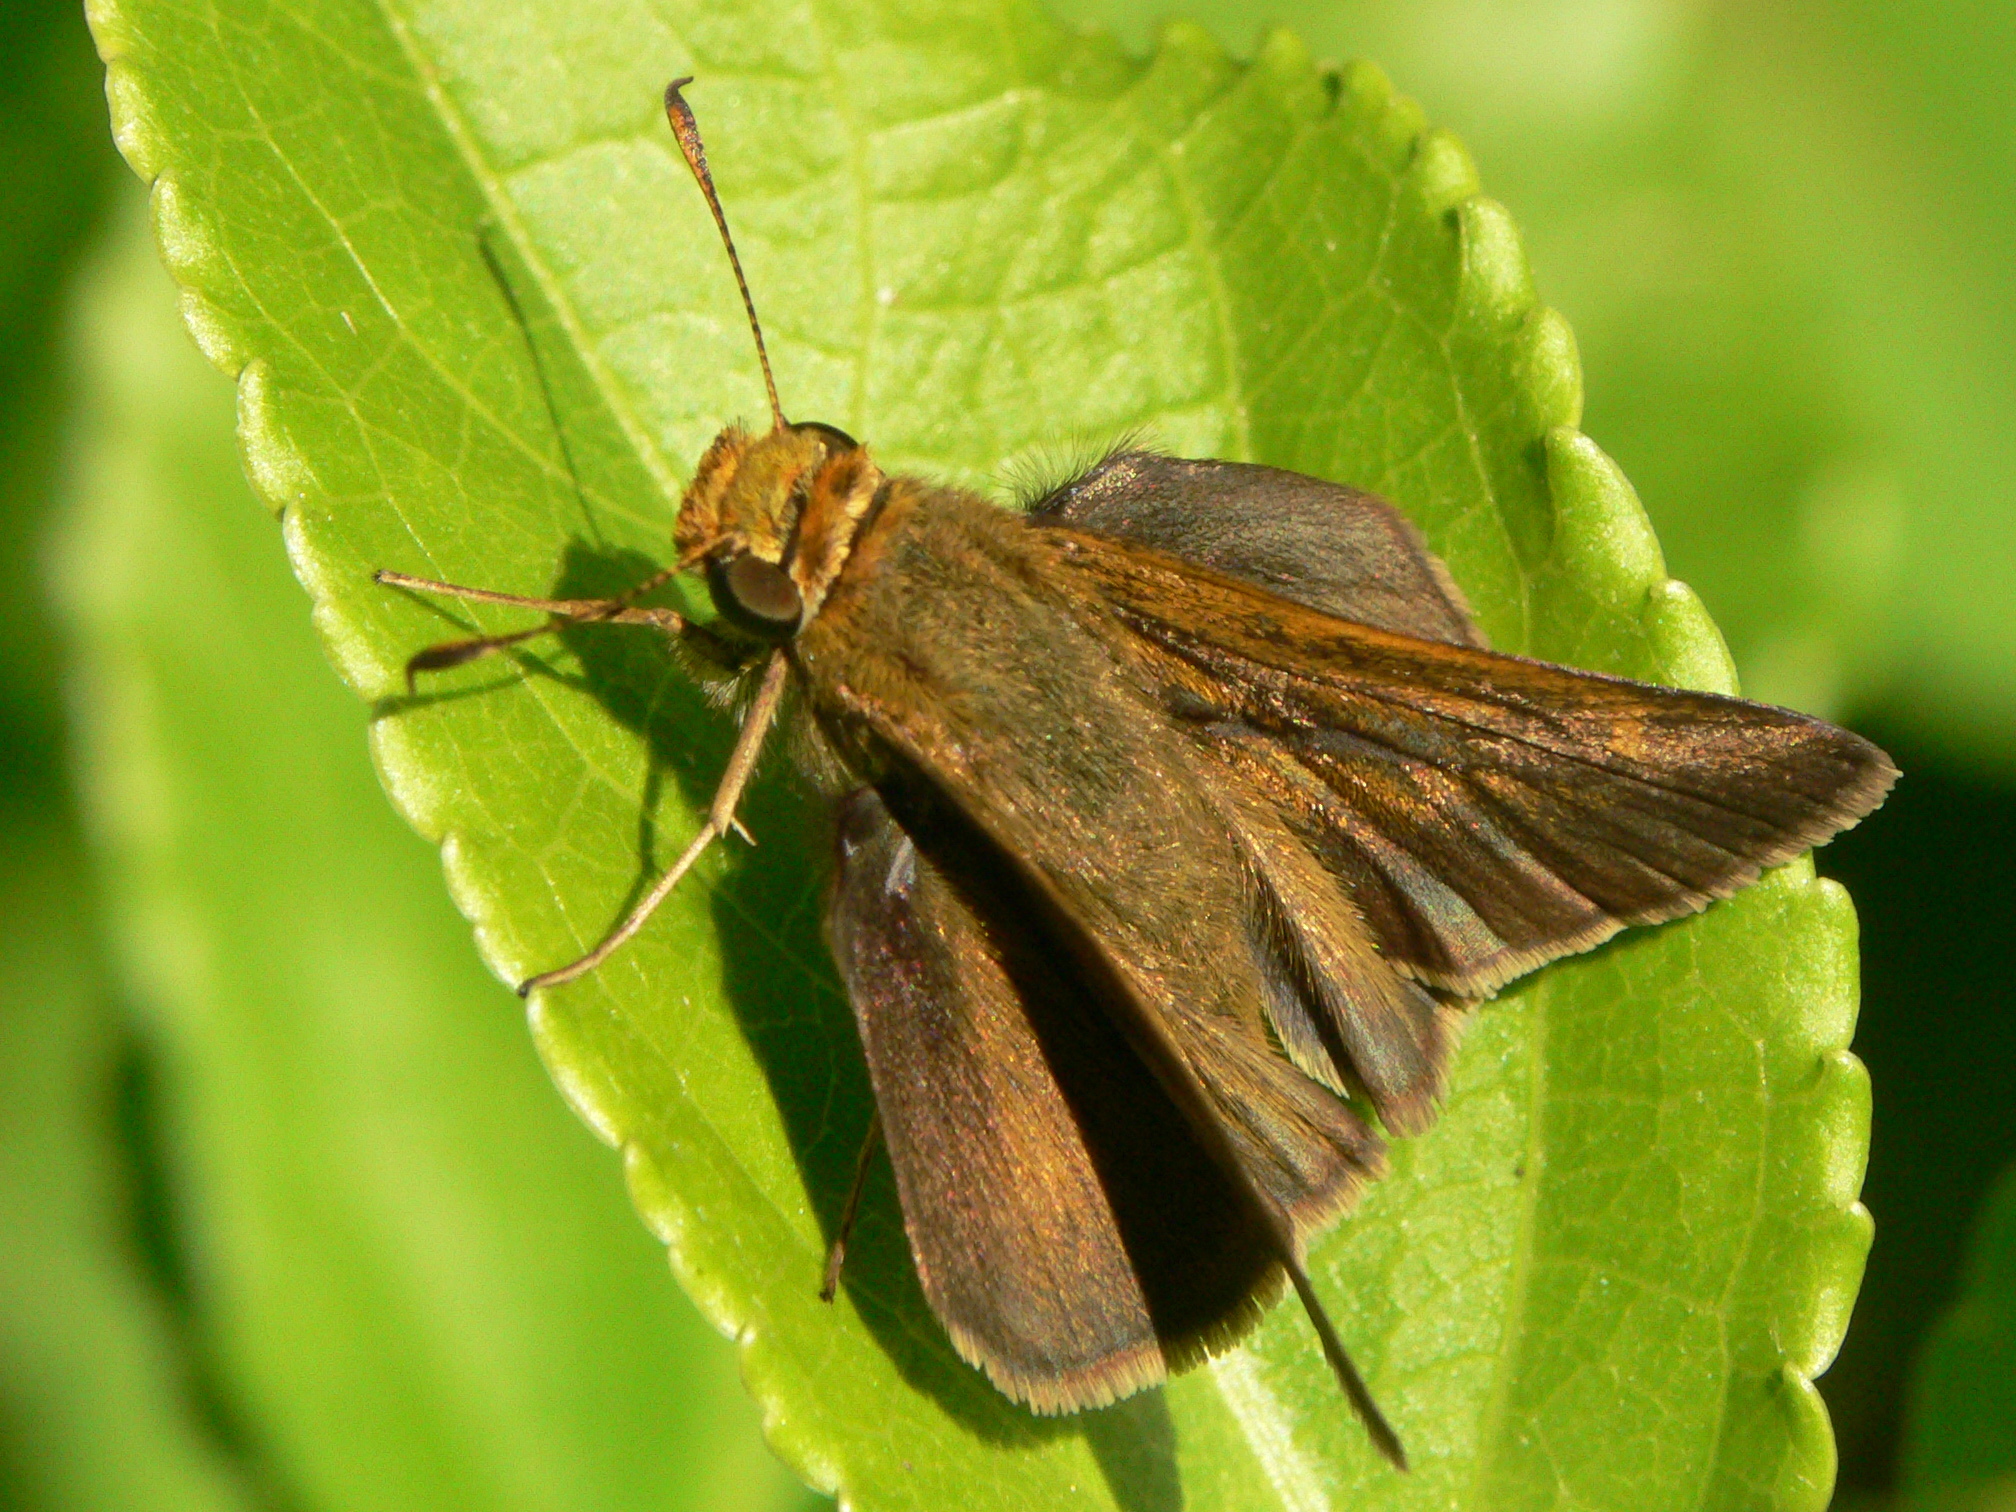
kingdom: Animalia
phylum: Arthropoda
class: Insecta
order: Lepidoptera
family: Hesperiidae
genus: Euphyes
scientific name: Euphyes vestris
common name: Dun skipper
